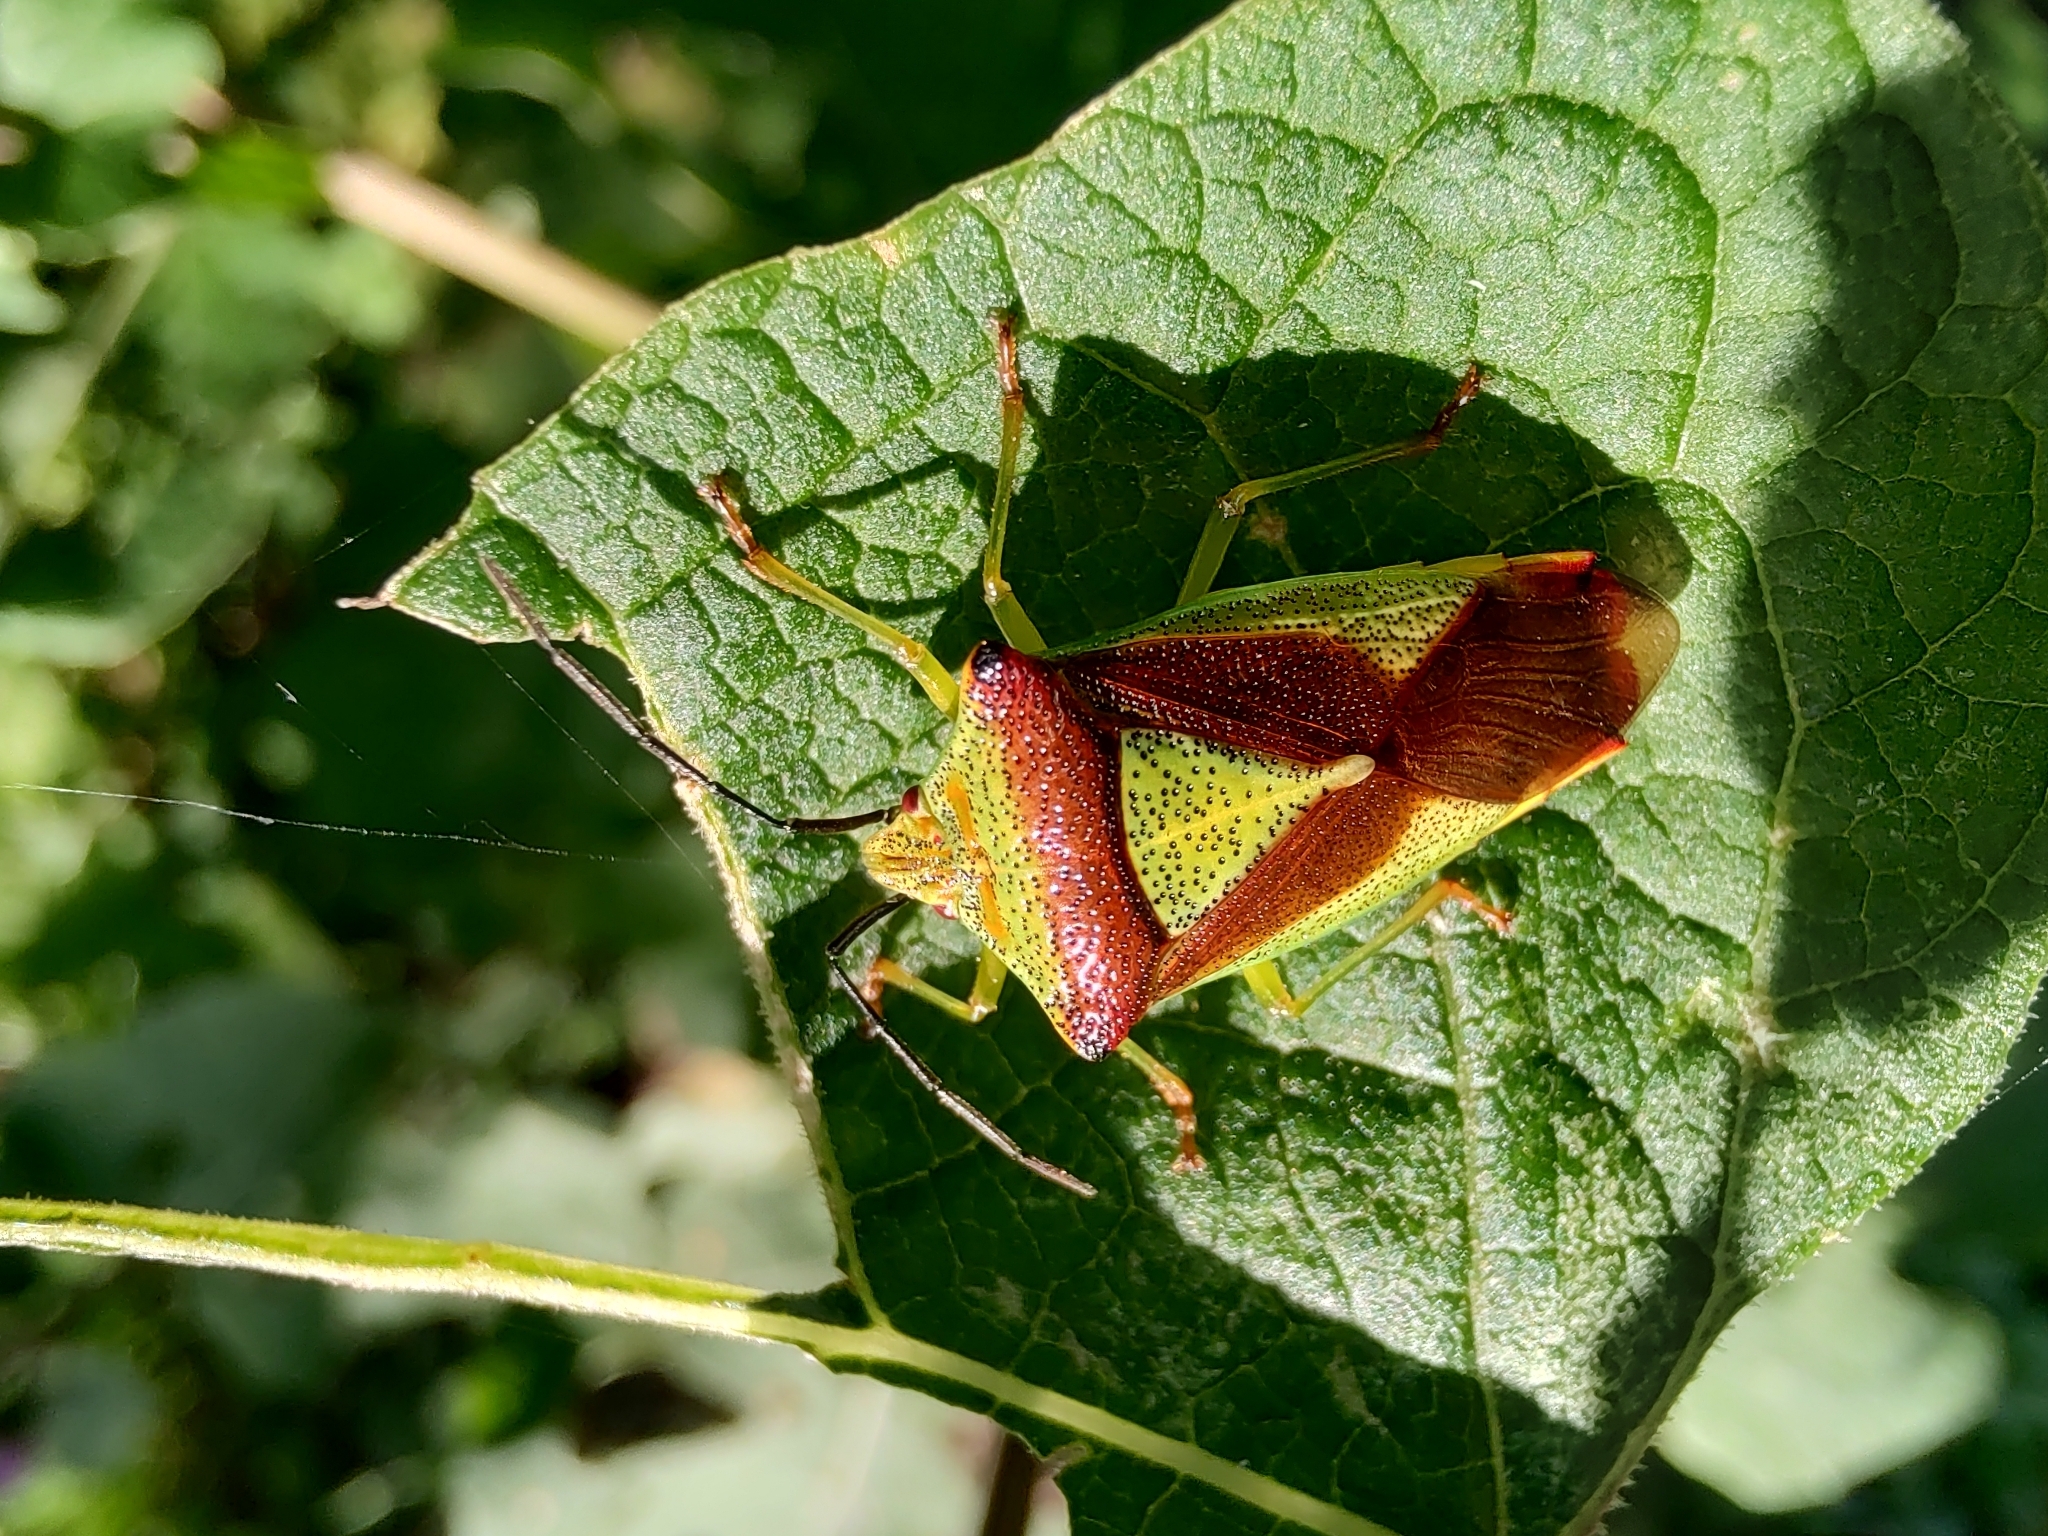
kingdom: Animalia
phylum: Arthropoda
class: Insecta
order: Hemiptera
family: Acanthosomatidae
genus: Acanthosoma
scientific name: Acanthosoma haemorrhoidale
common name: Hawthorn shieldbug
